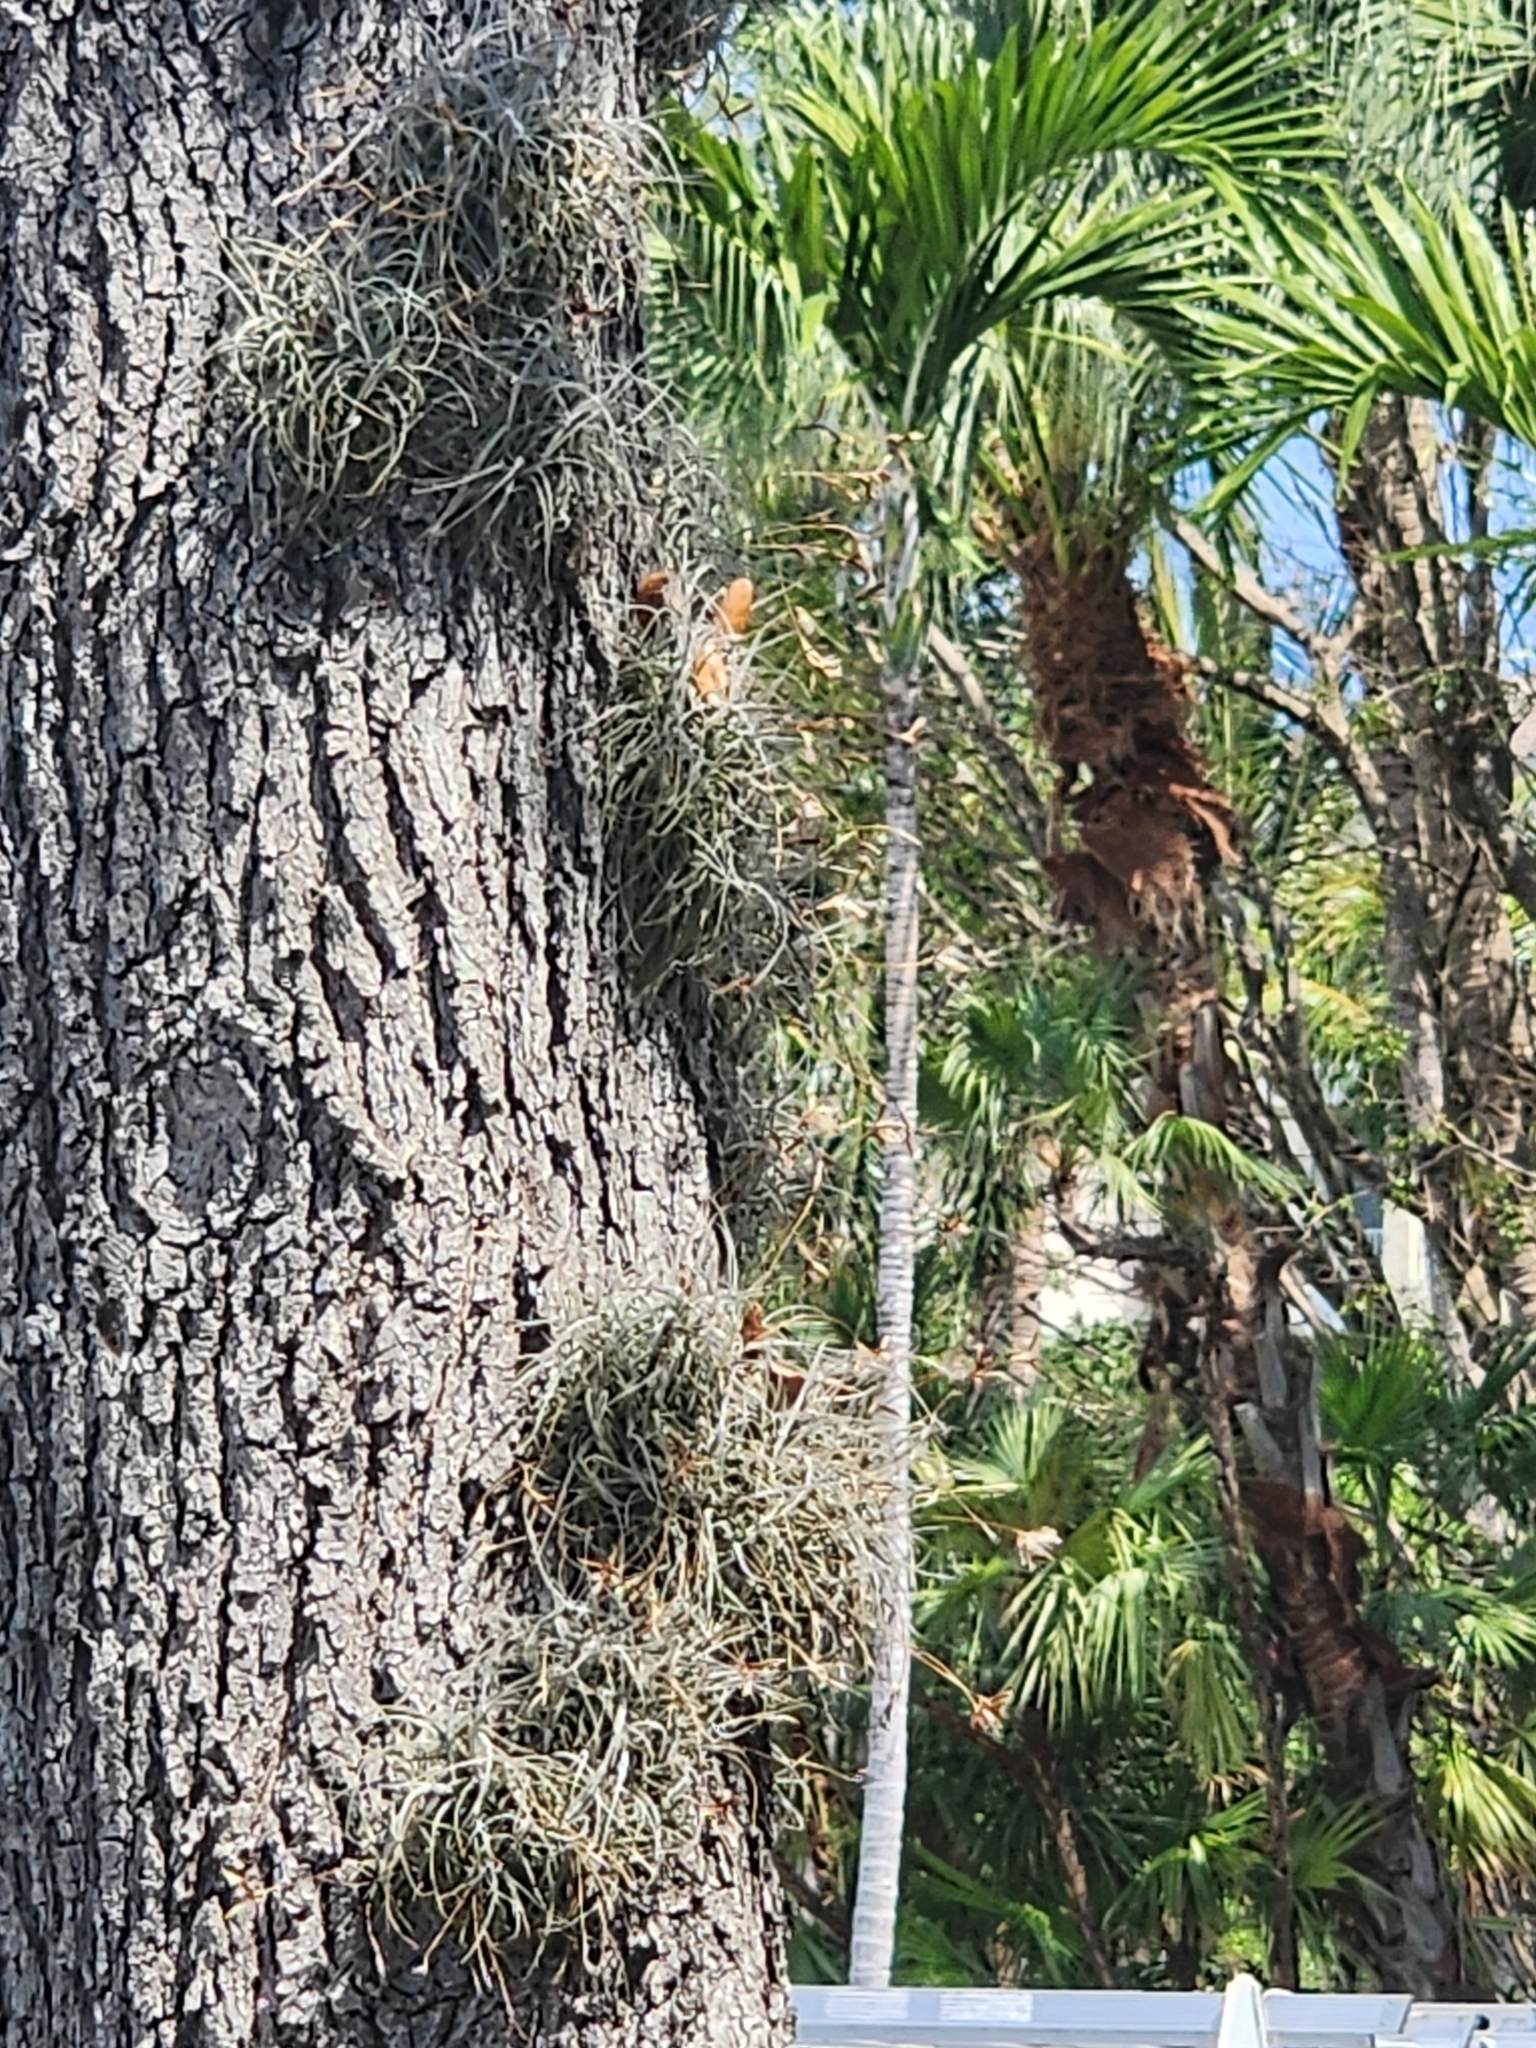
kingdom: Plantae
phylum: Tracheophyta
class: Liliopsida
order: Poales
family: Bromeliaceae
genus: Tillandsia
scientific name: Tillandsia recurvata
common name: Small ballmoss
